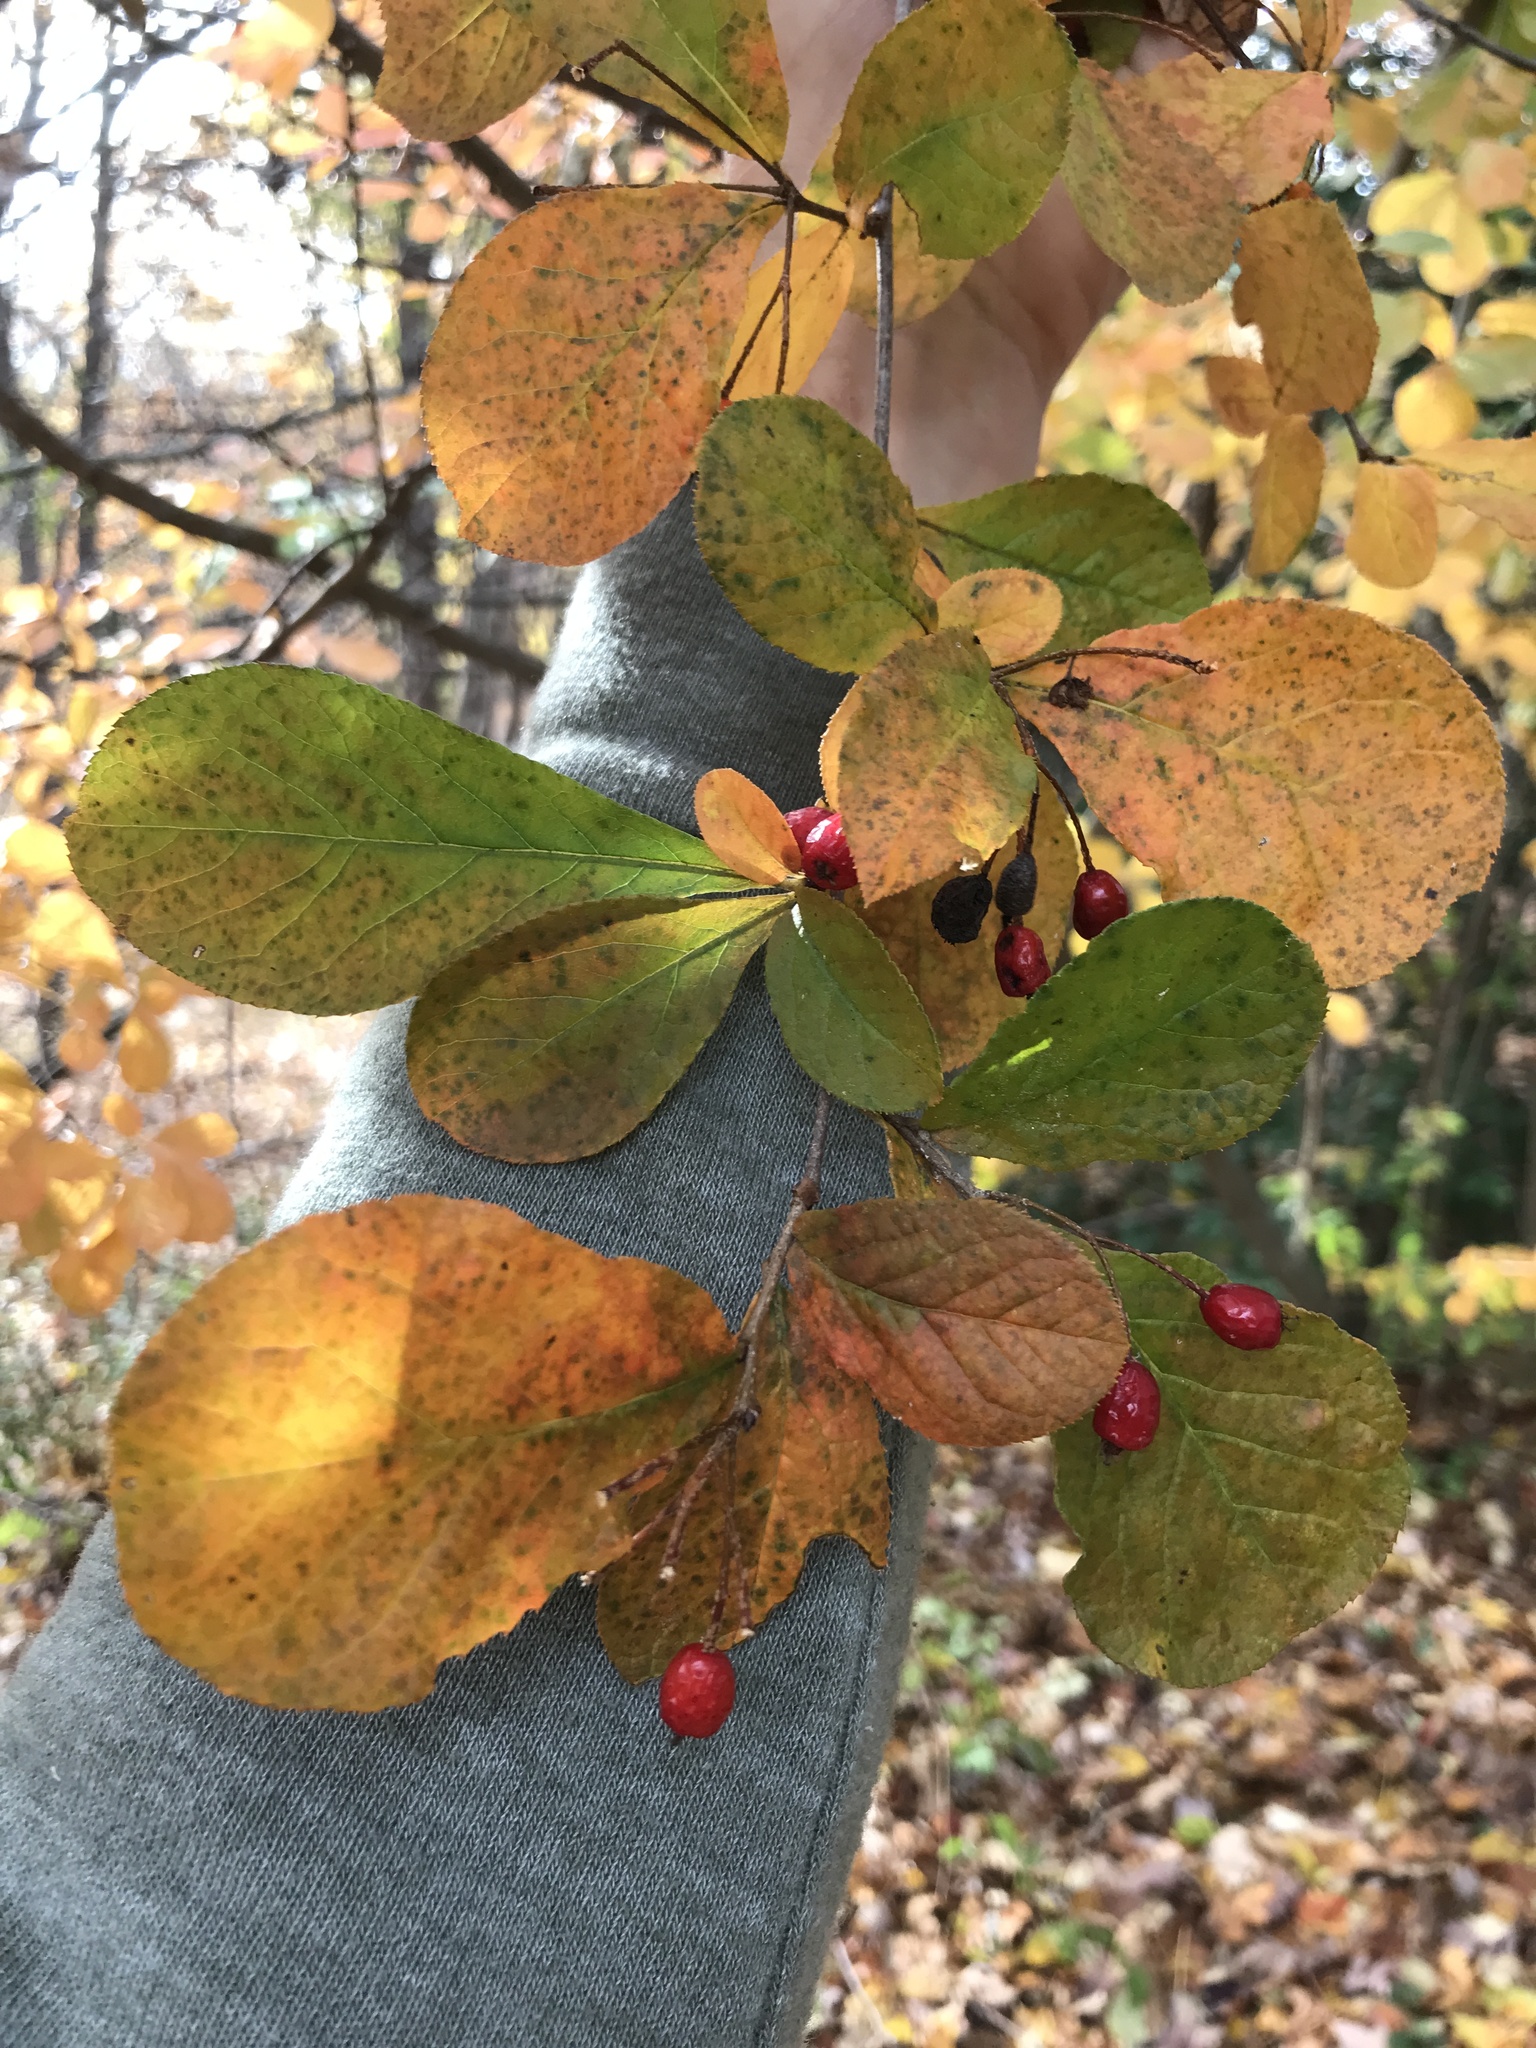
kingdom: Plantae
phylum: Tracheophyta
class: Magnoliopsida
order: Rosales
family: Rosaceae
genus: Pourthiaea
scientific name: Pourthiaea villosa
